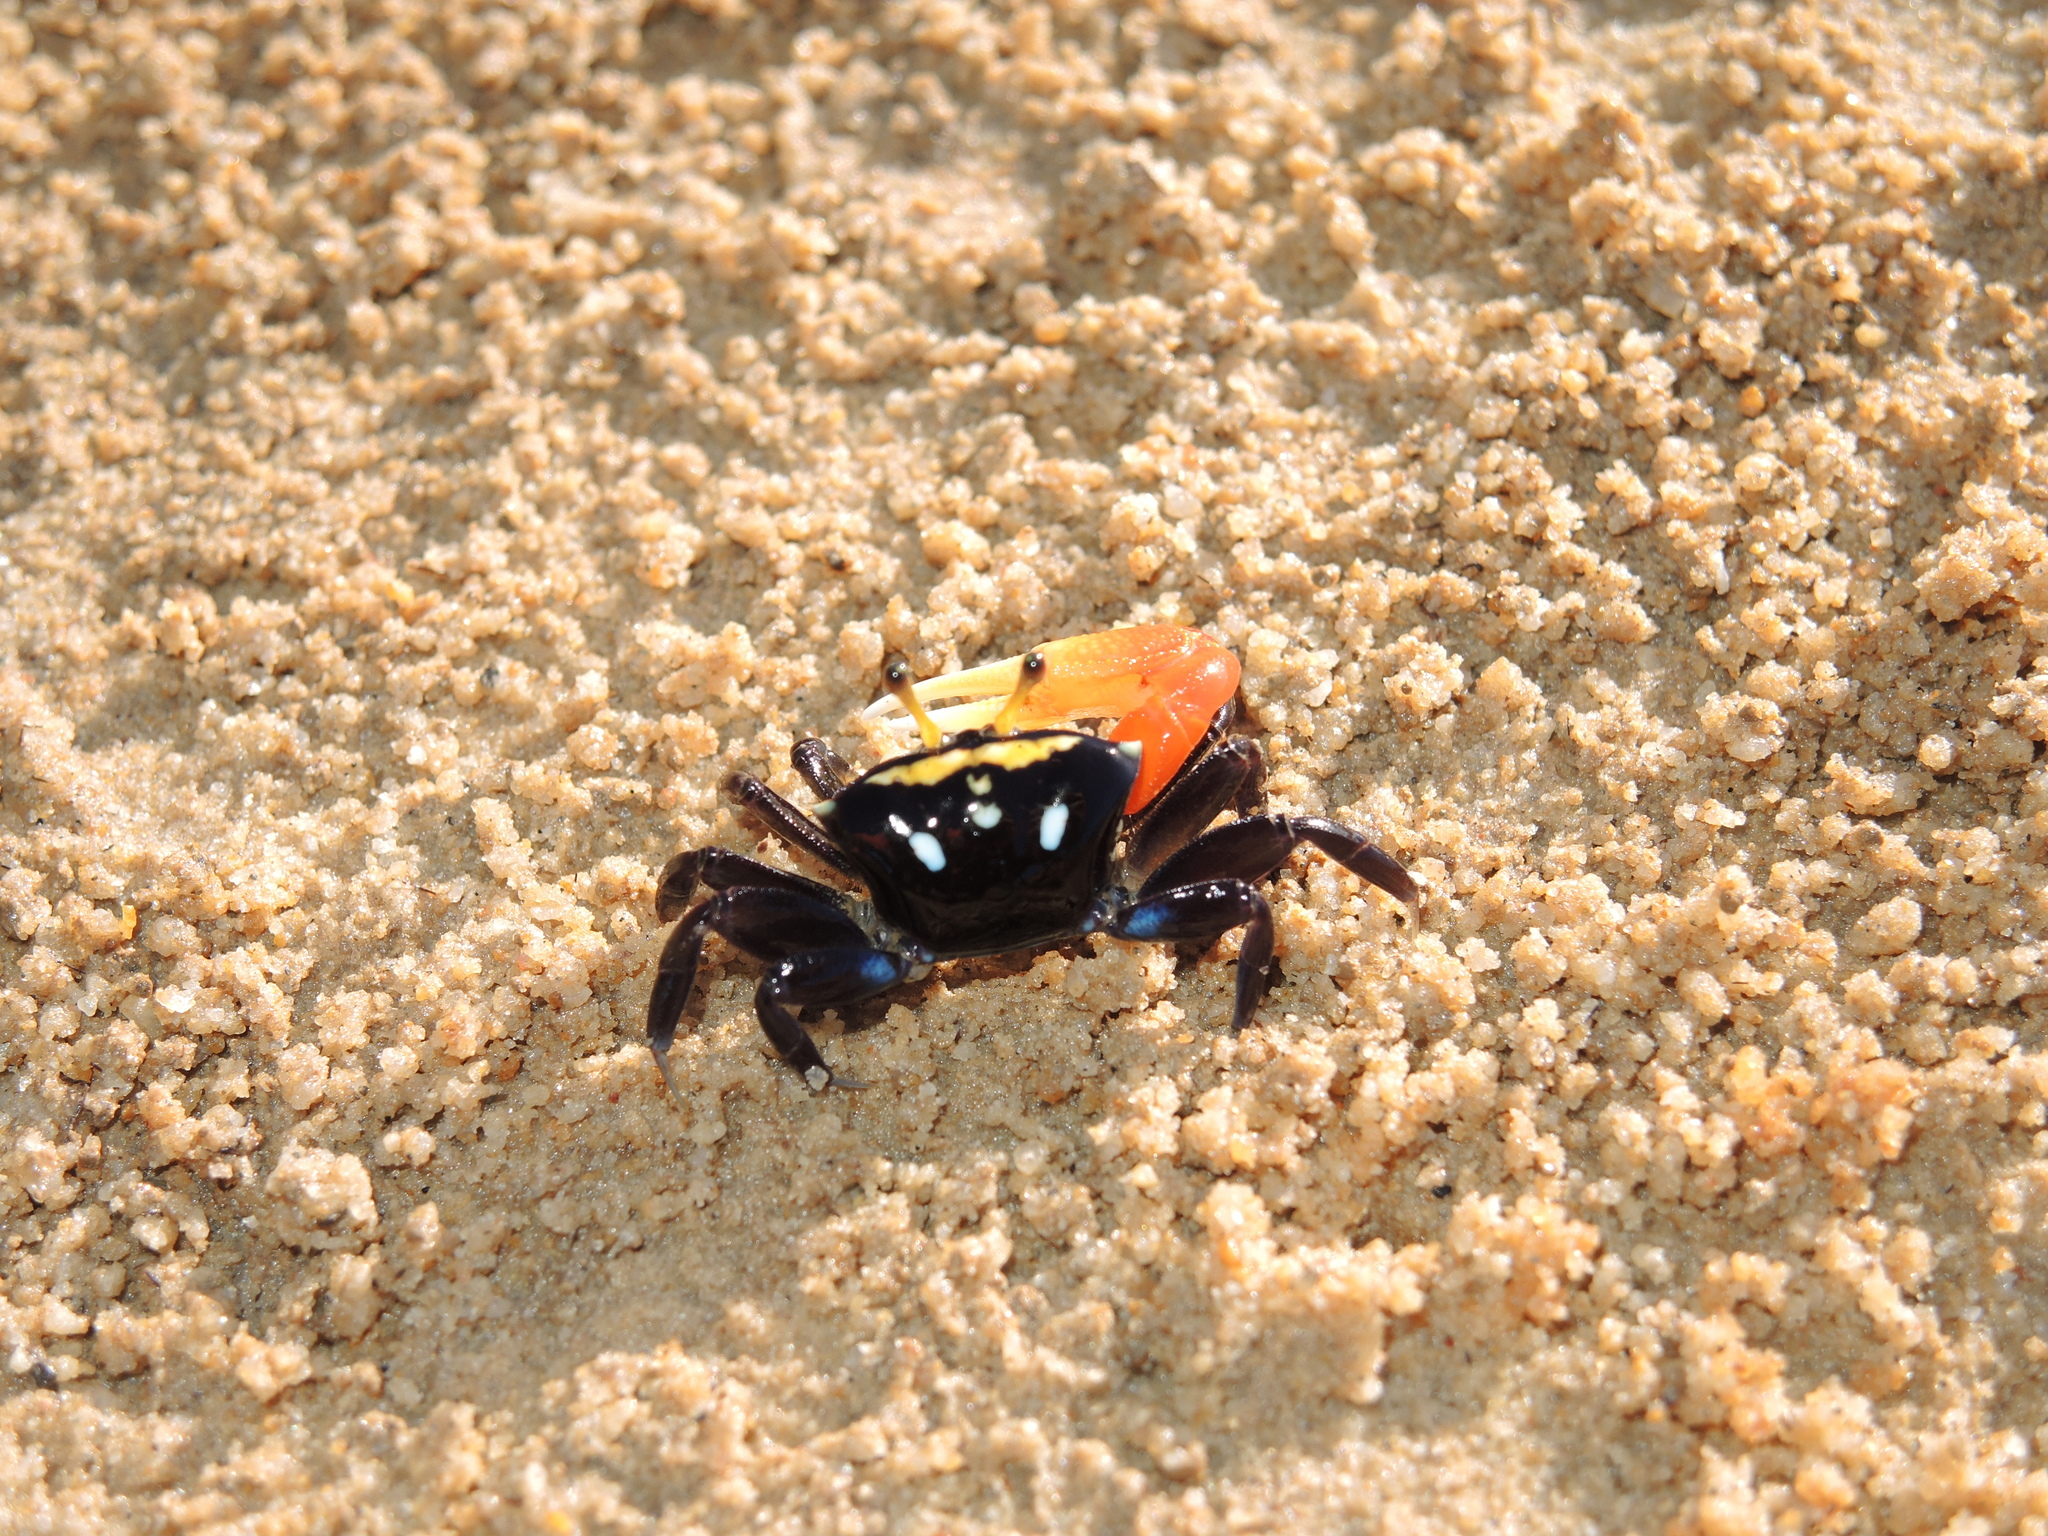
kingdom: Animalia
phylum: Arthropoda
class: Malacostraca
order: Decapoda
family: Ocypodidae
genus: Tubuca
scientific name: Tubuca capricornis
